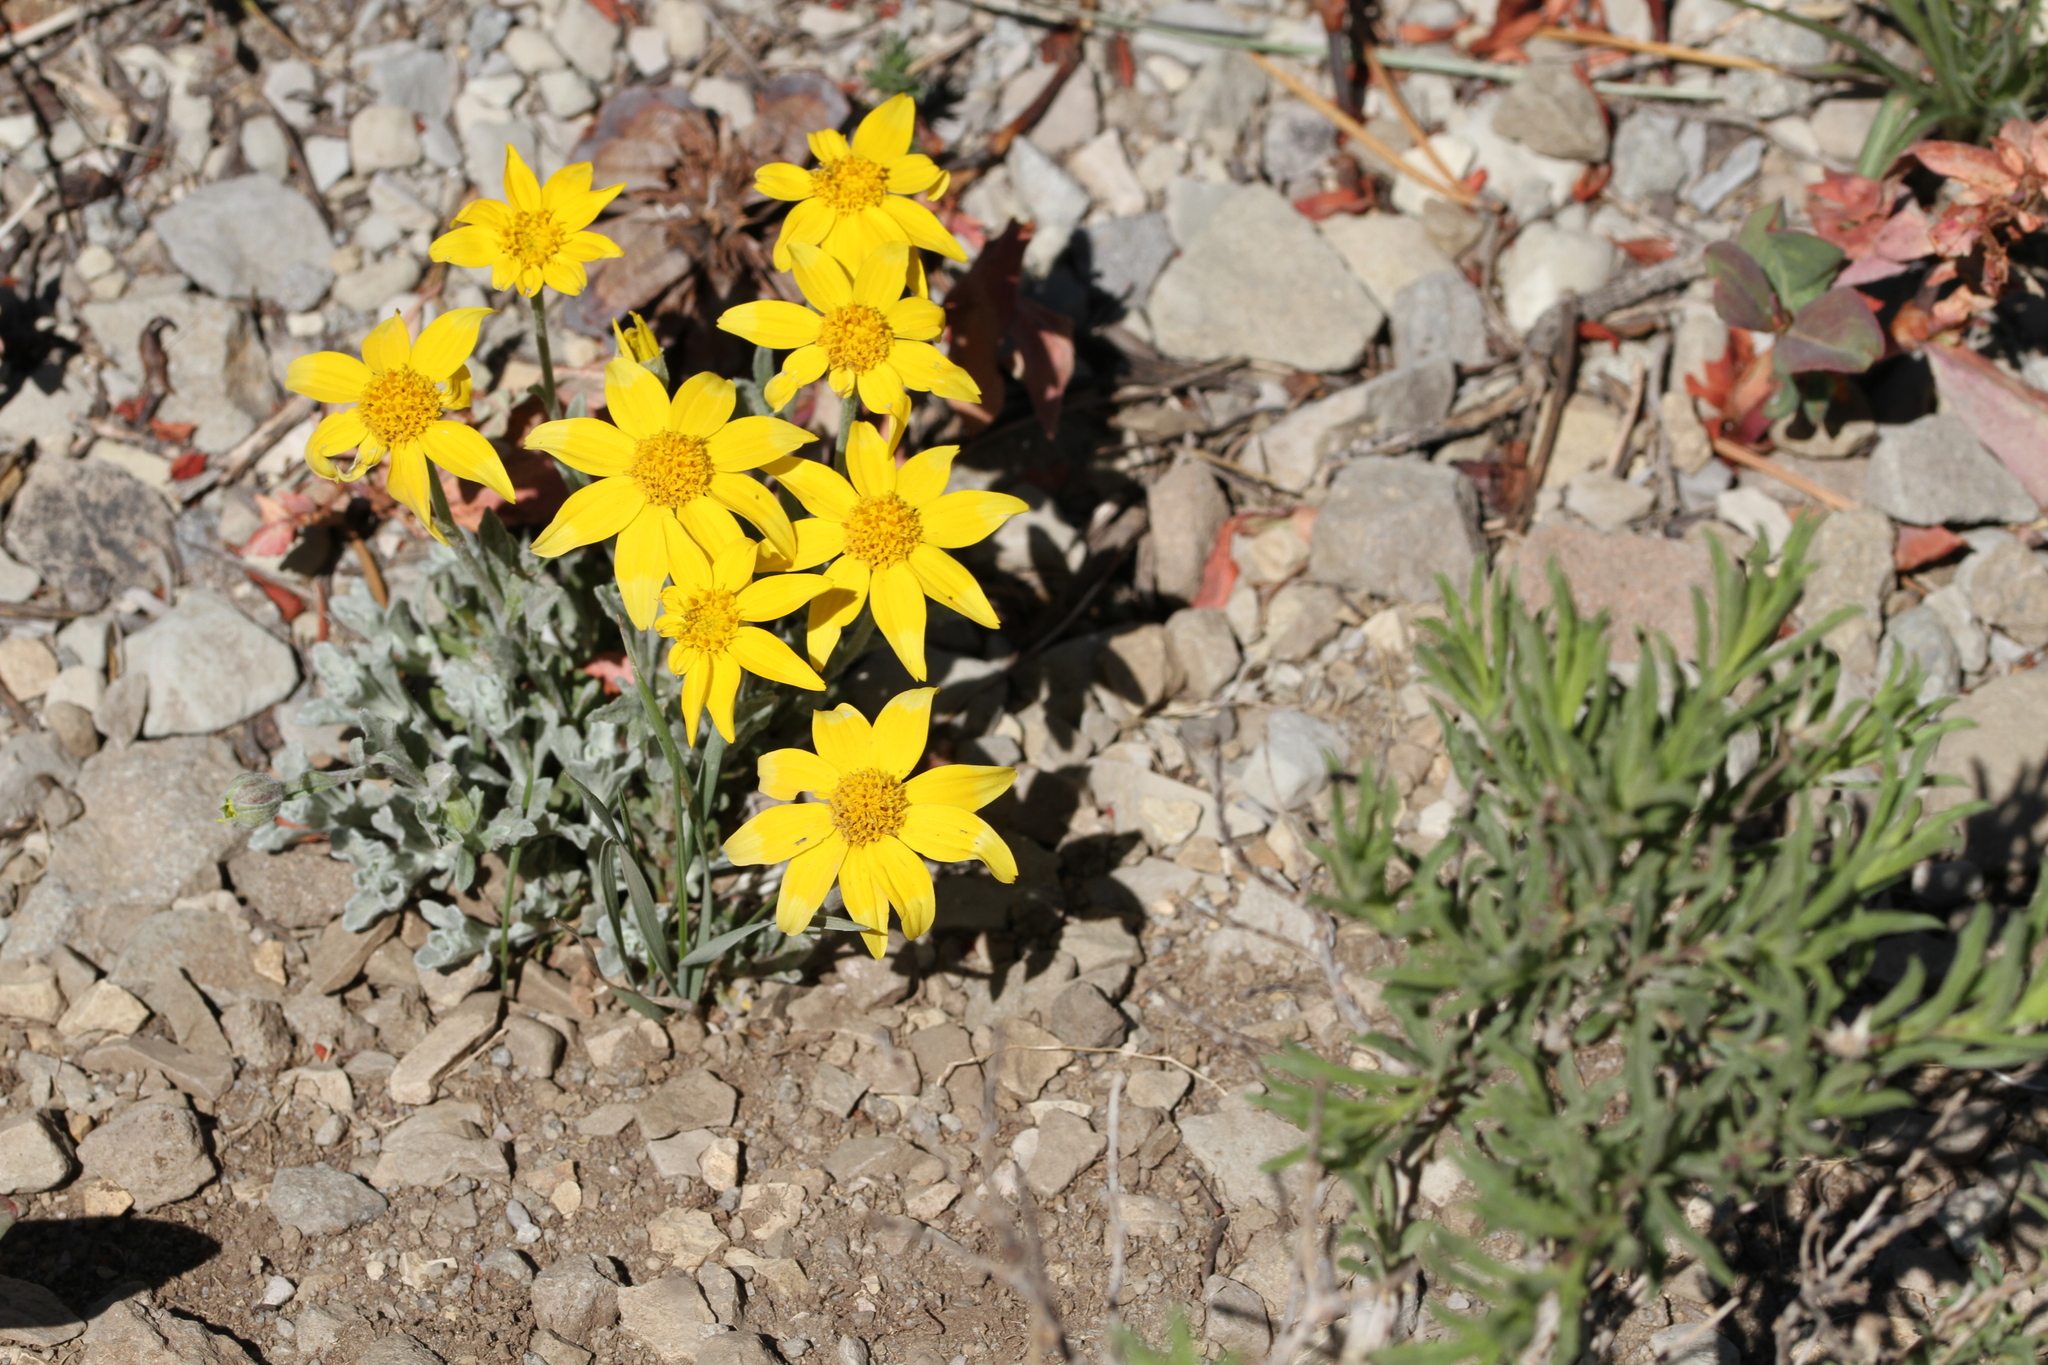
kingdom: Plantae
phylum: Tracheophyta
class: Magnoliopsida
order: Asterales
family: Asteraceae
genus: Eriophyllum
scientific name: Eriophyllum lanatum
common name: Common woolly-sunflower
